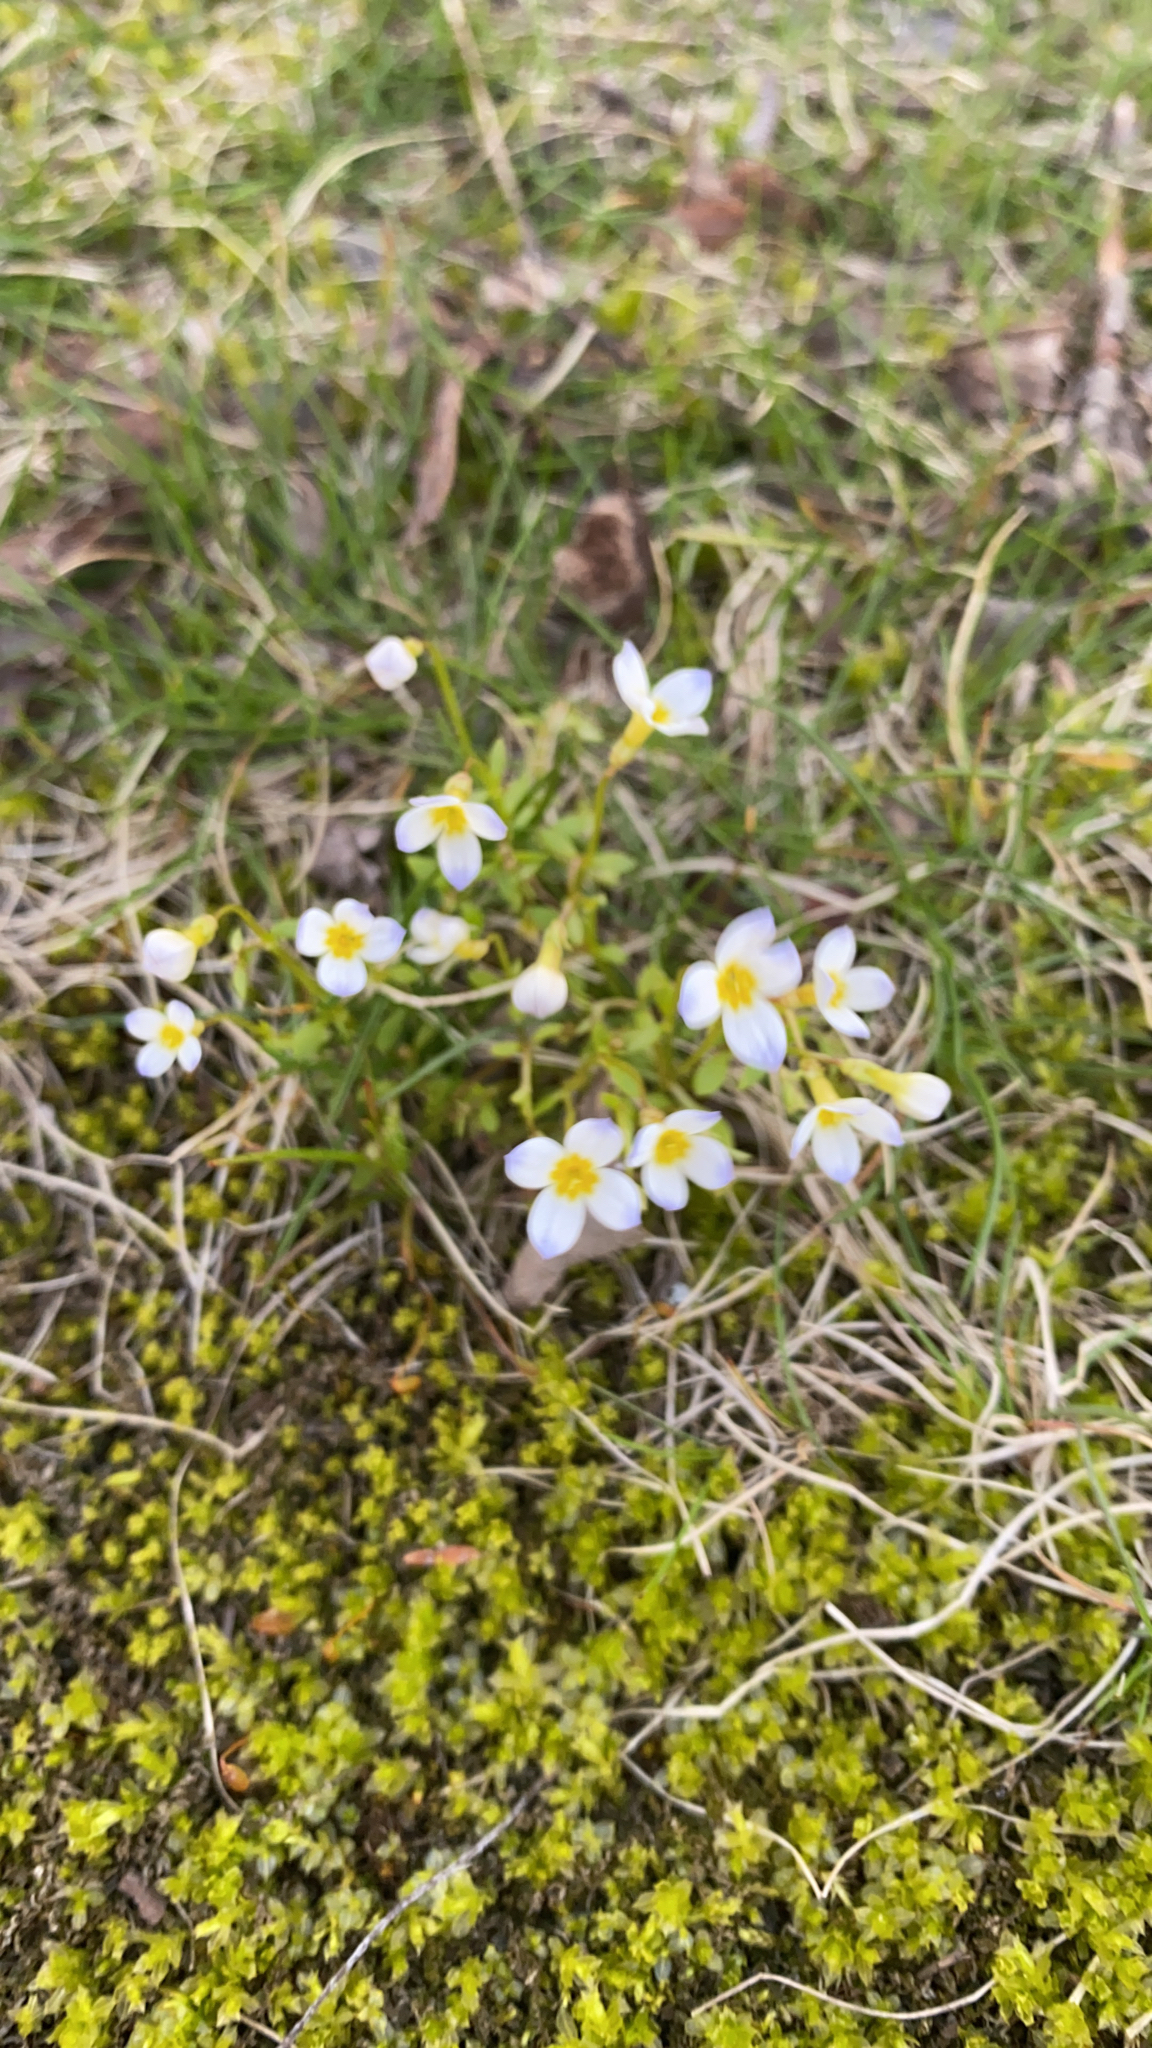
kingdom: Plantae
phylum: Tracheophyta
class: Magnoliopsida
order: Gentianales
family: Rubiaceae
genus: Houstonia
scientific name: Houstonia caerulea
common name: Bluets
